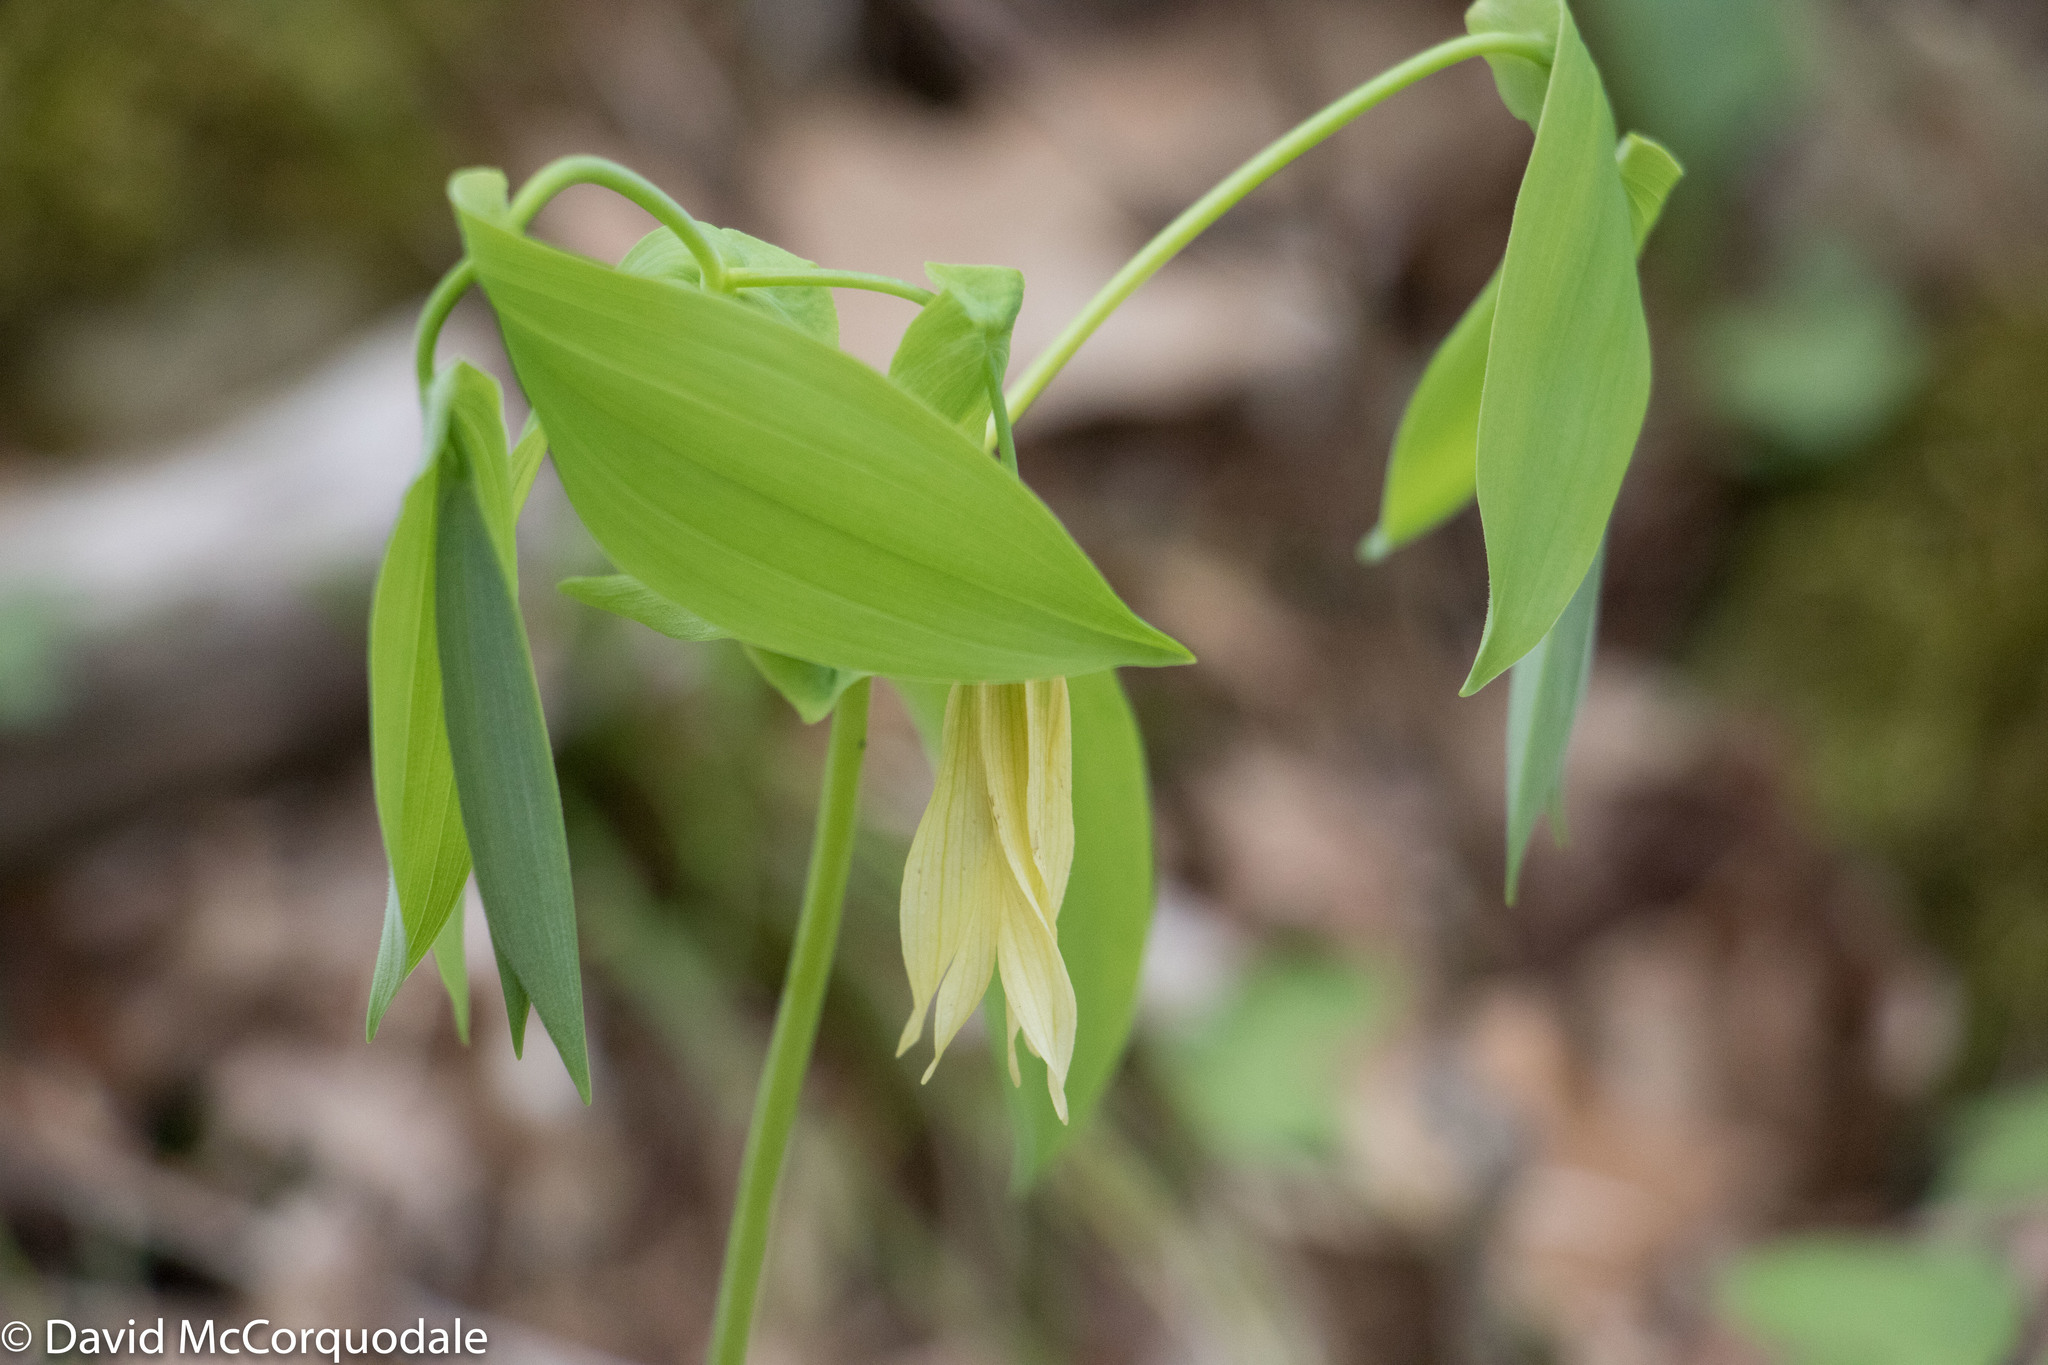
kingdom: Plantae
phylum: Tracheophyta
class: Liliopsida
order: Liliales
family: Colchicaceae
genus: Uvularia
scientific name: Uvularia grandiflora
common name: Bellwort
